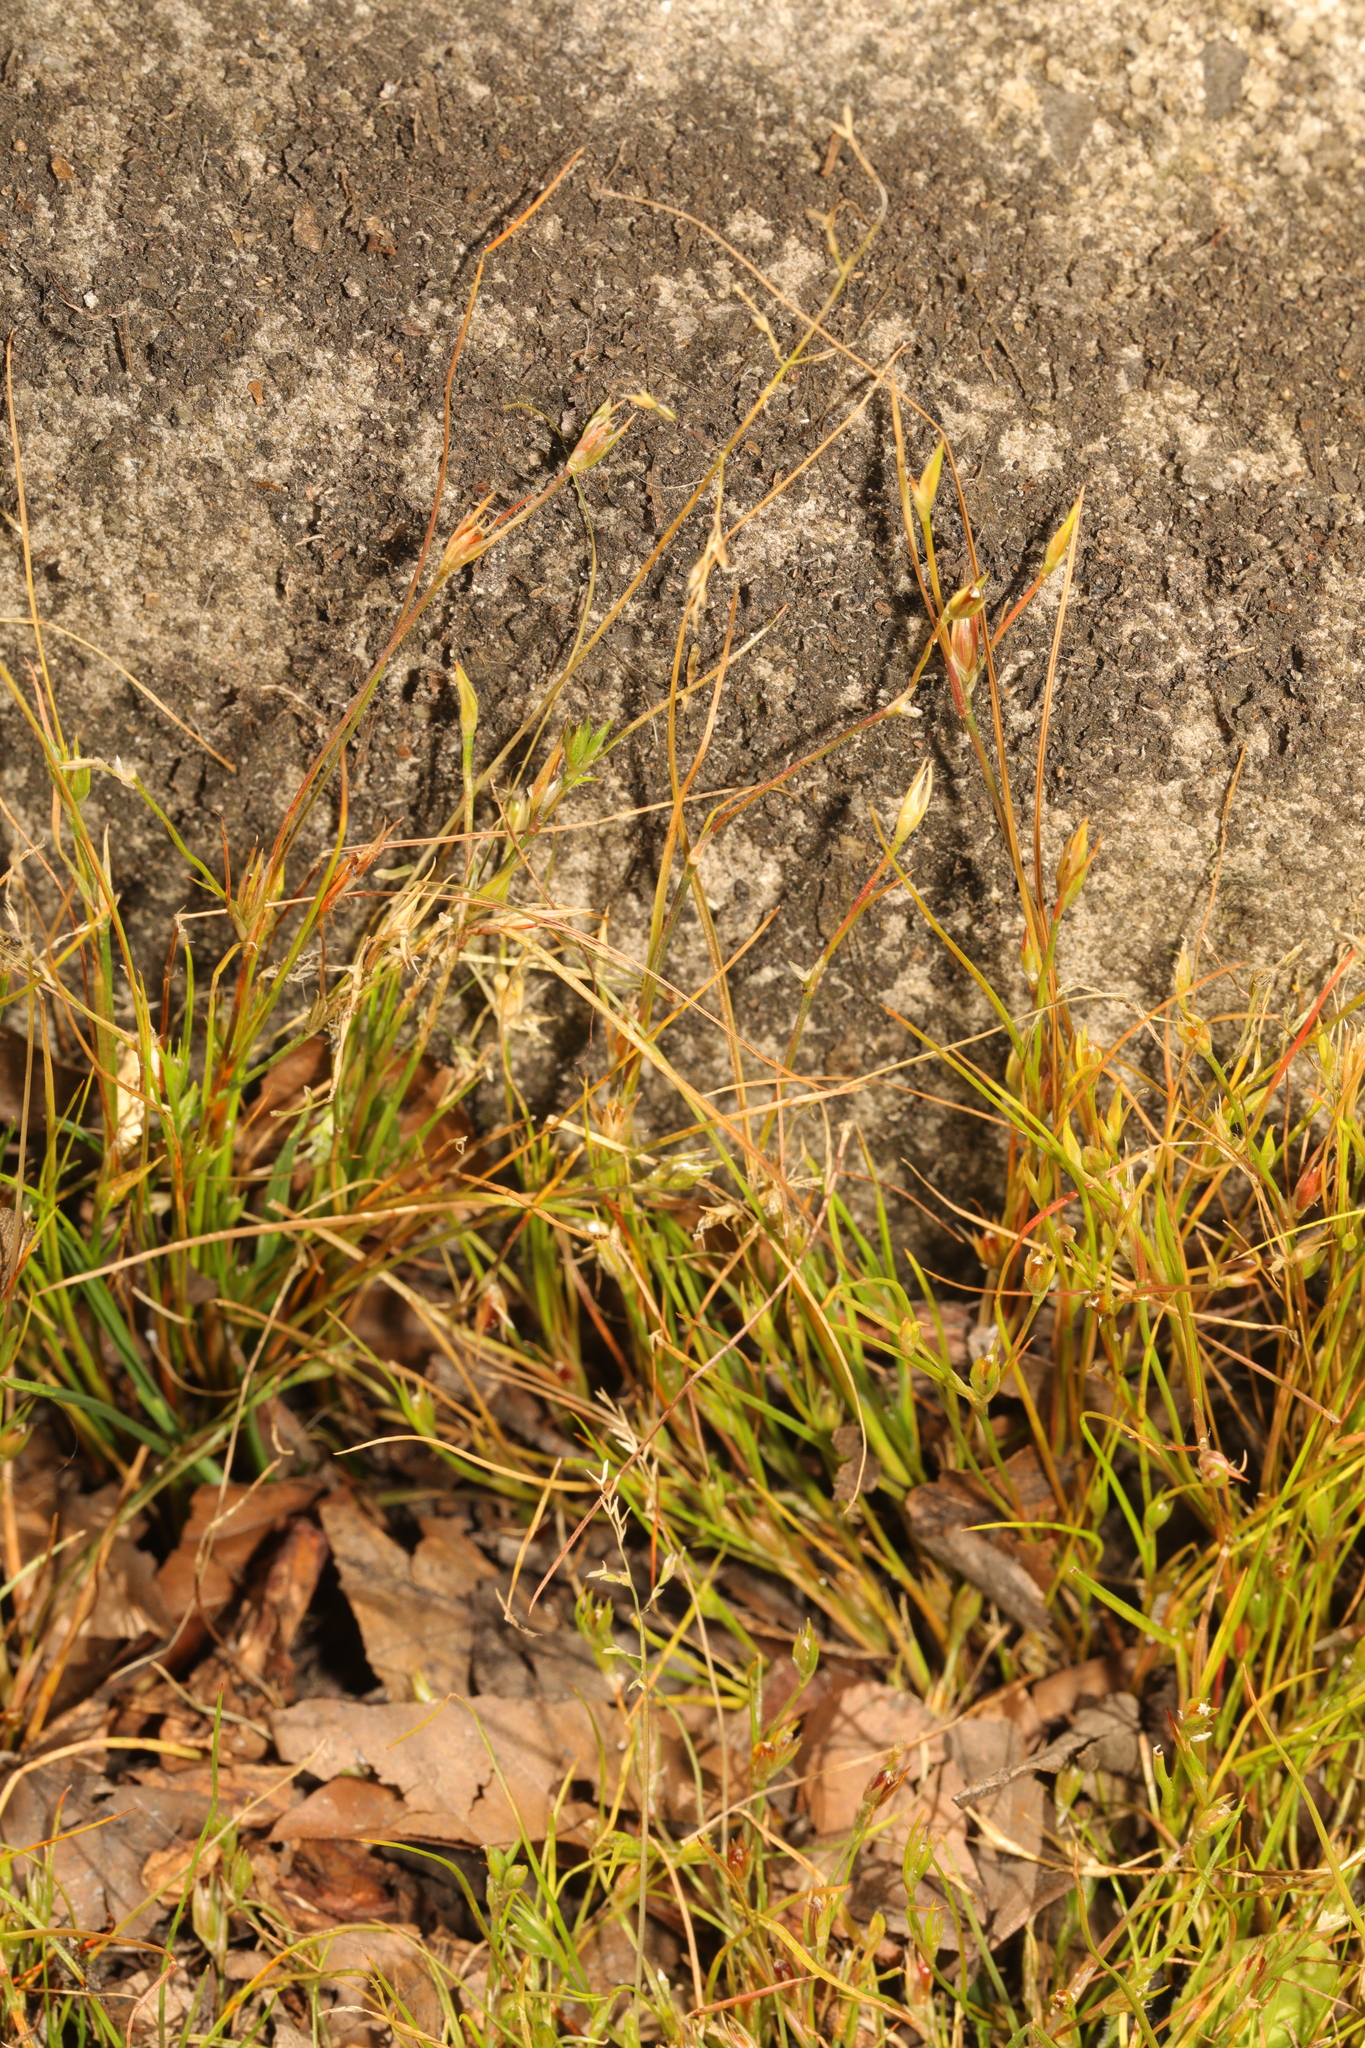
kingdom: Plantae
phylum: Tracheophyta
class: Liliopsida
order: Poales
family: Juncaceae
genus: Juncus
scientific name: Juncus bufonius
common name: Toad rush
